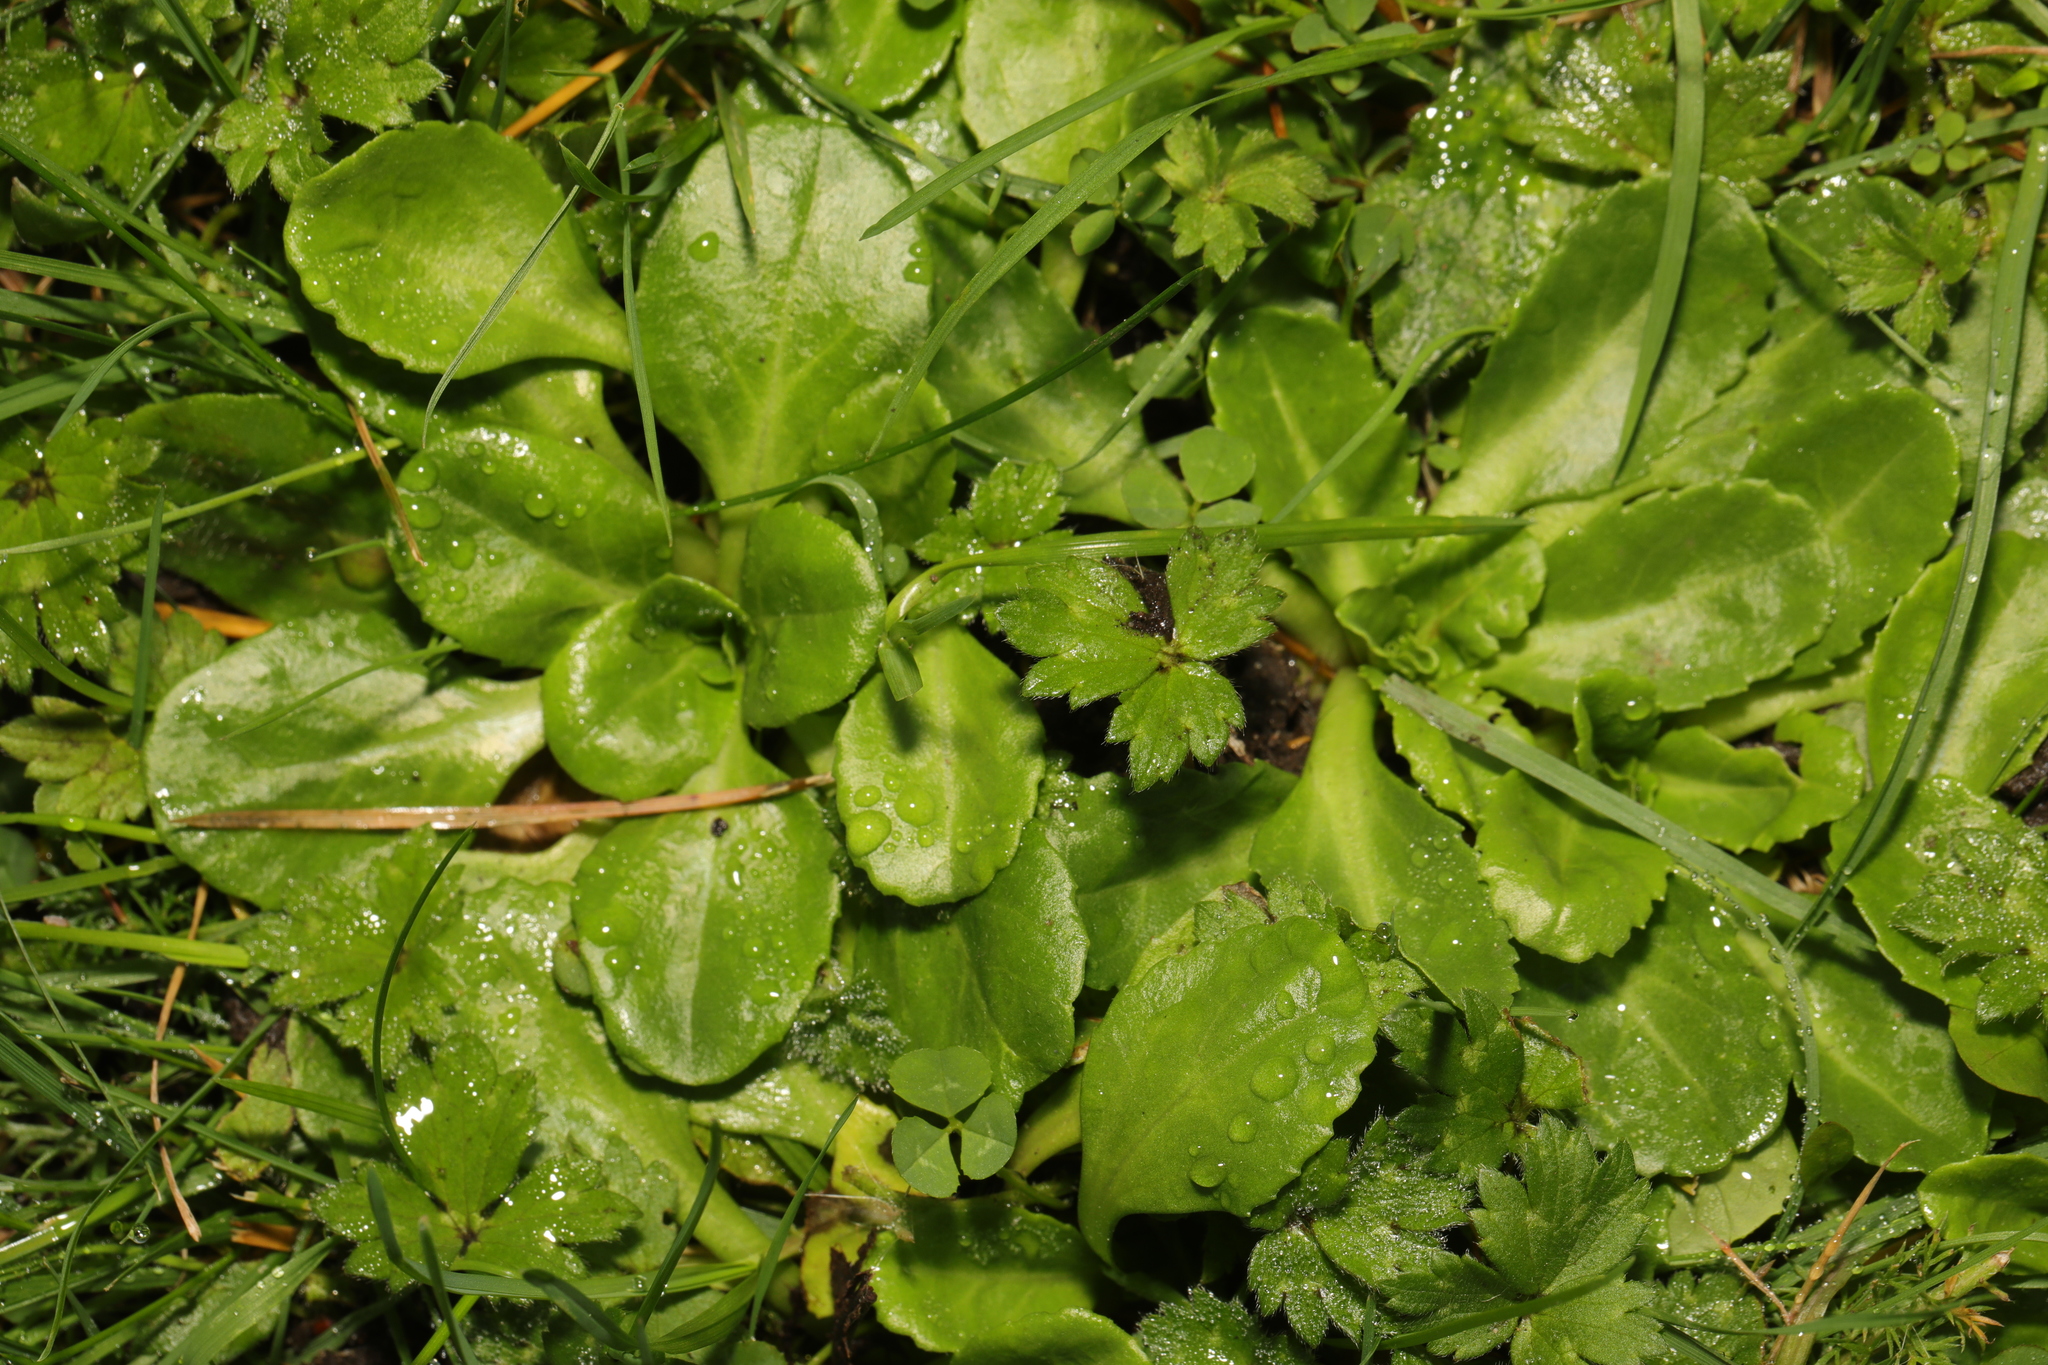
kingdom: Plantae
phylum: Tracheophyta
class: Magnoliopsida
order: Asterales
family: Asteraceae
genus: Bellis
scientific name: Bellis perennis
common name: Lawndaisy
